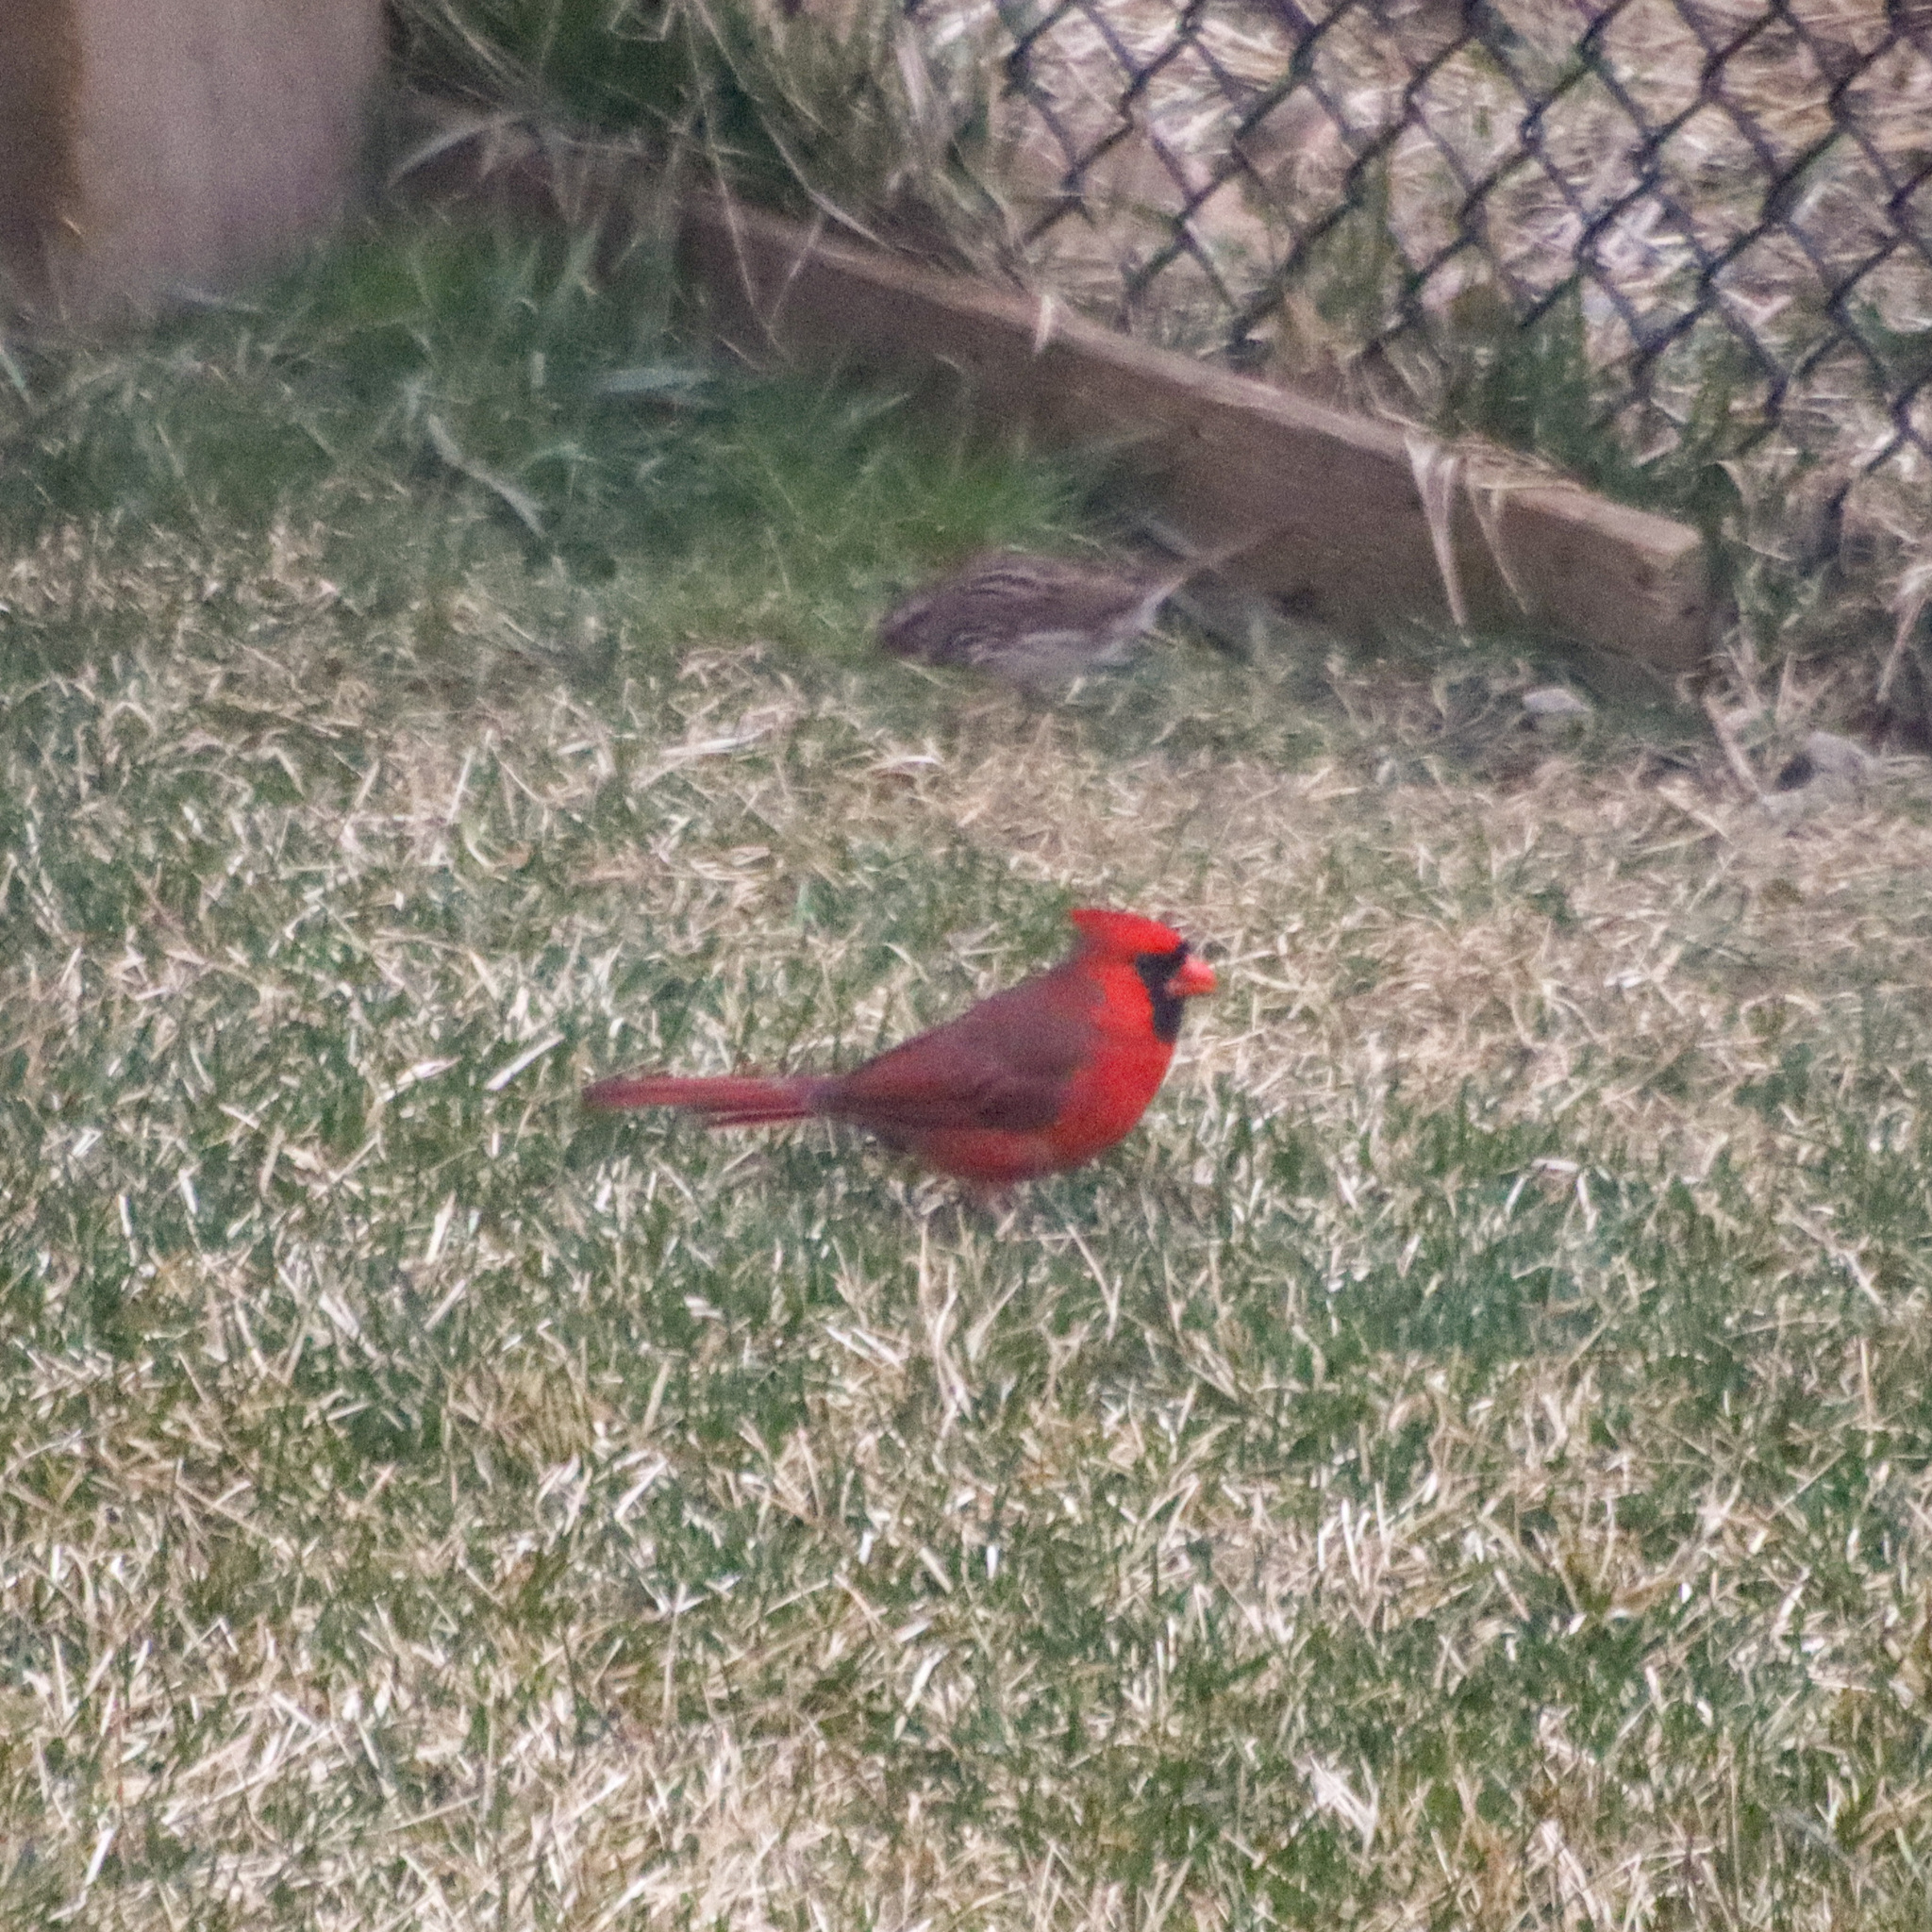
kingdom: Animalia
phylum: Chordata
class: Aves
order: Passeriformes
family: Cardinalidae
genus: Cardinalis
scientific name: Cardinalis cardinalis
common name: Northern cardinal
